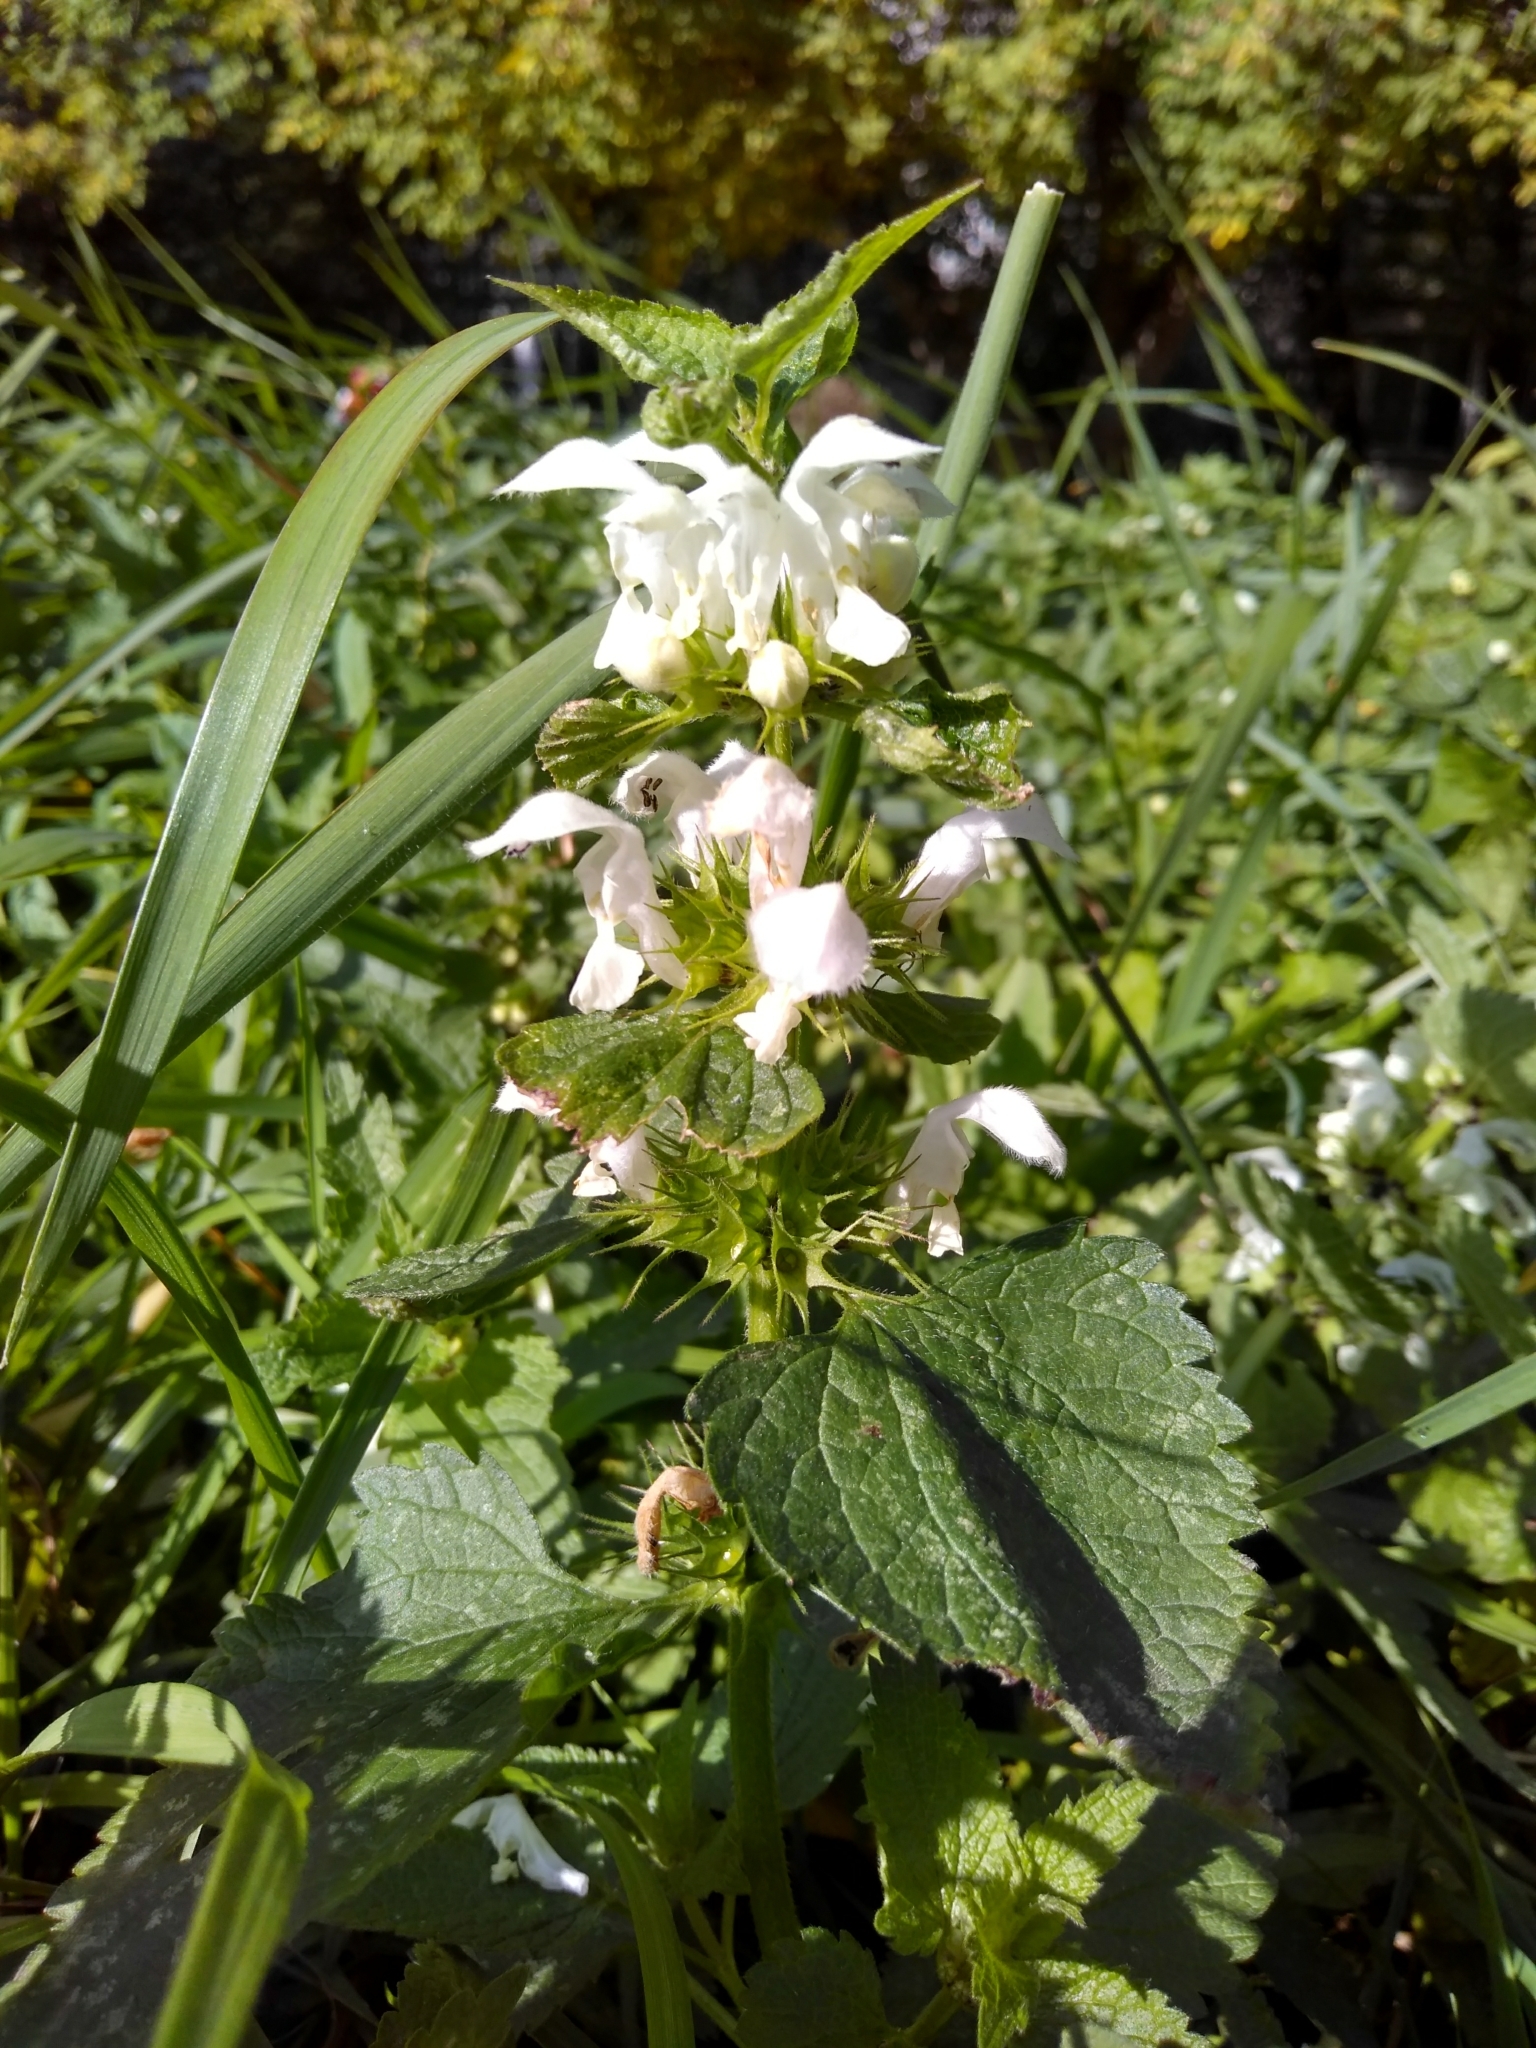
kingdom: Plantae
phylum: Tracheophyta
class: Magnoliopsida
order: Lamiales
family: Lamiaceae
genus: Lamium
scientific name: Lamium album
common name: White dead-nettle
